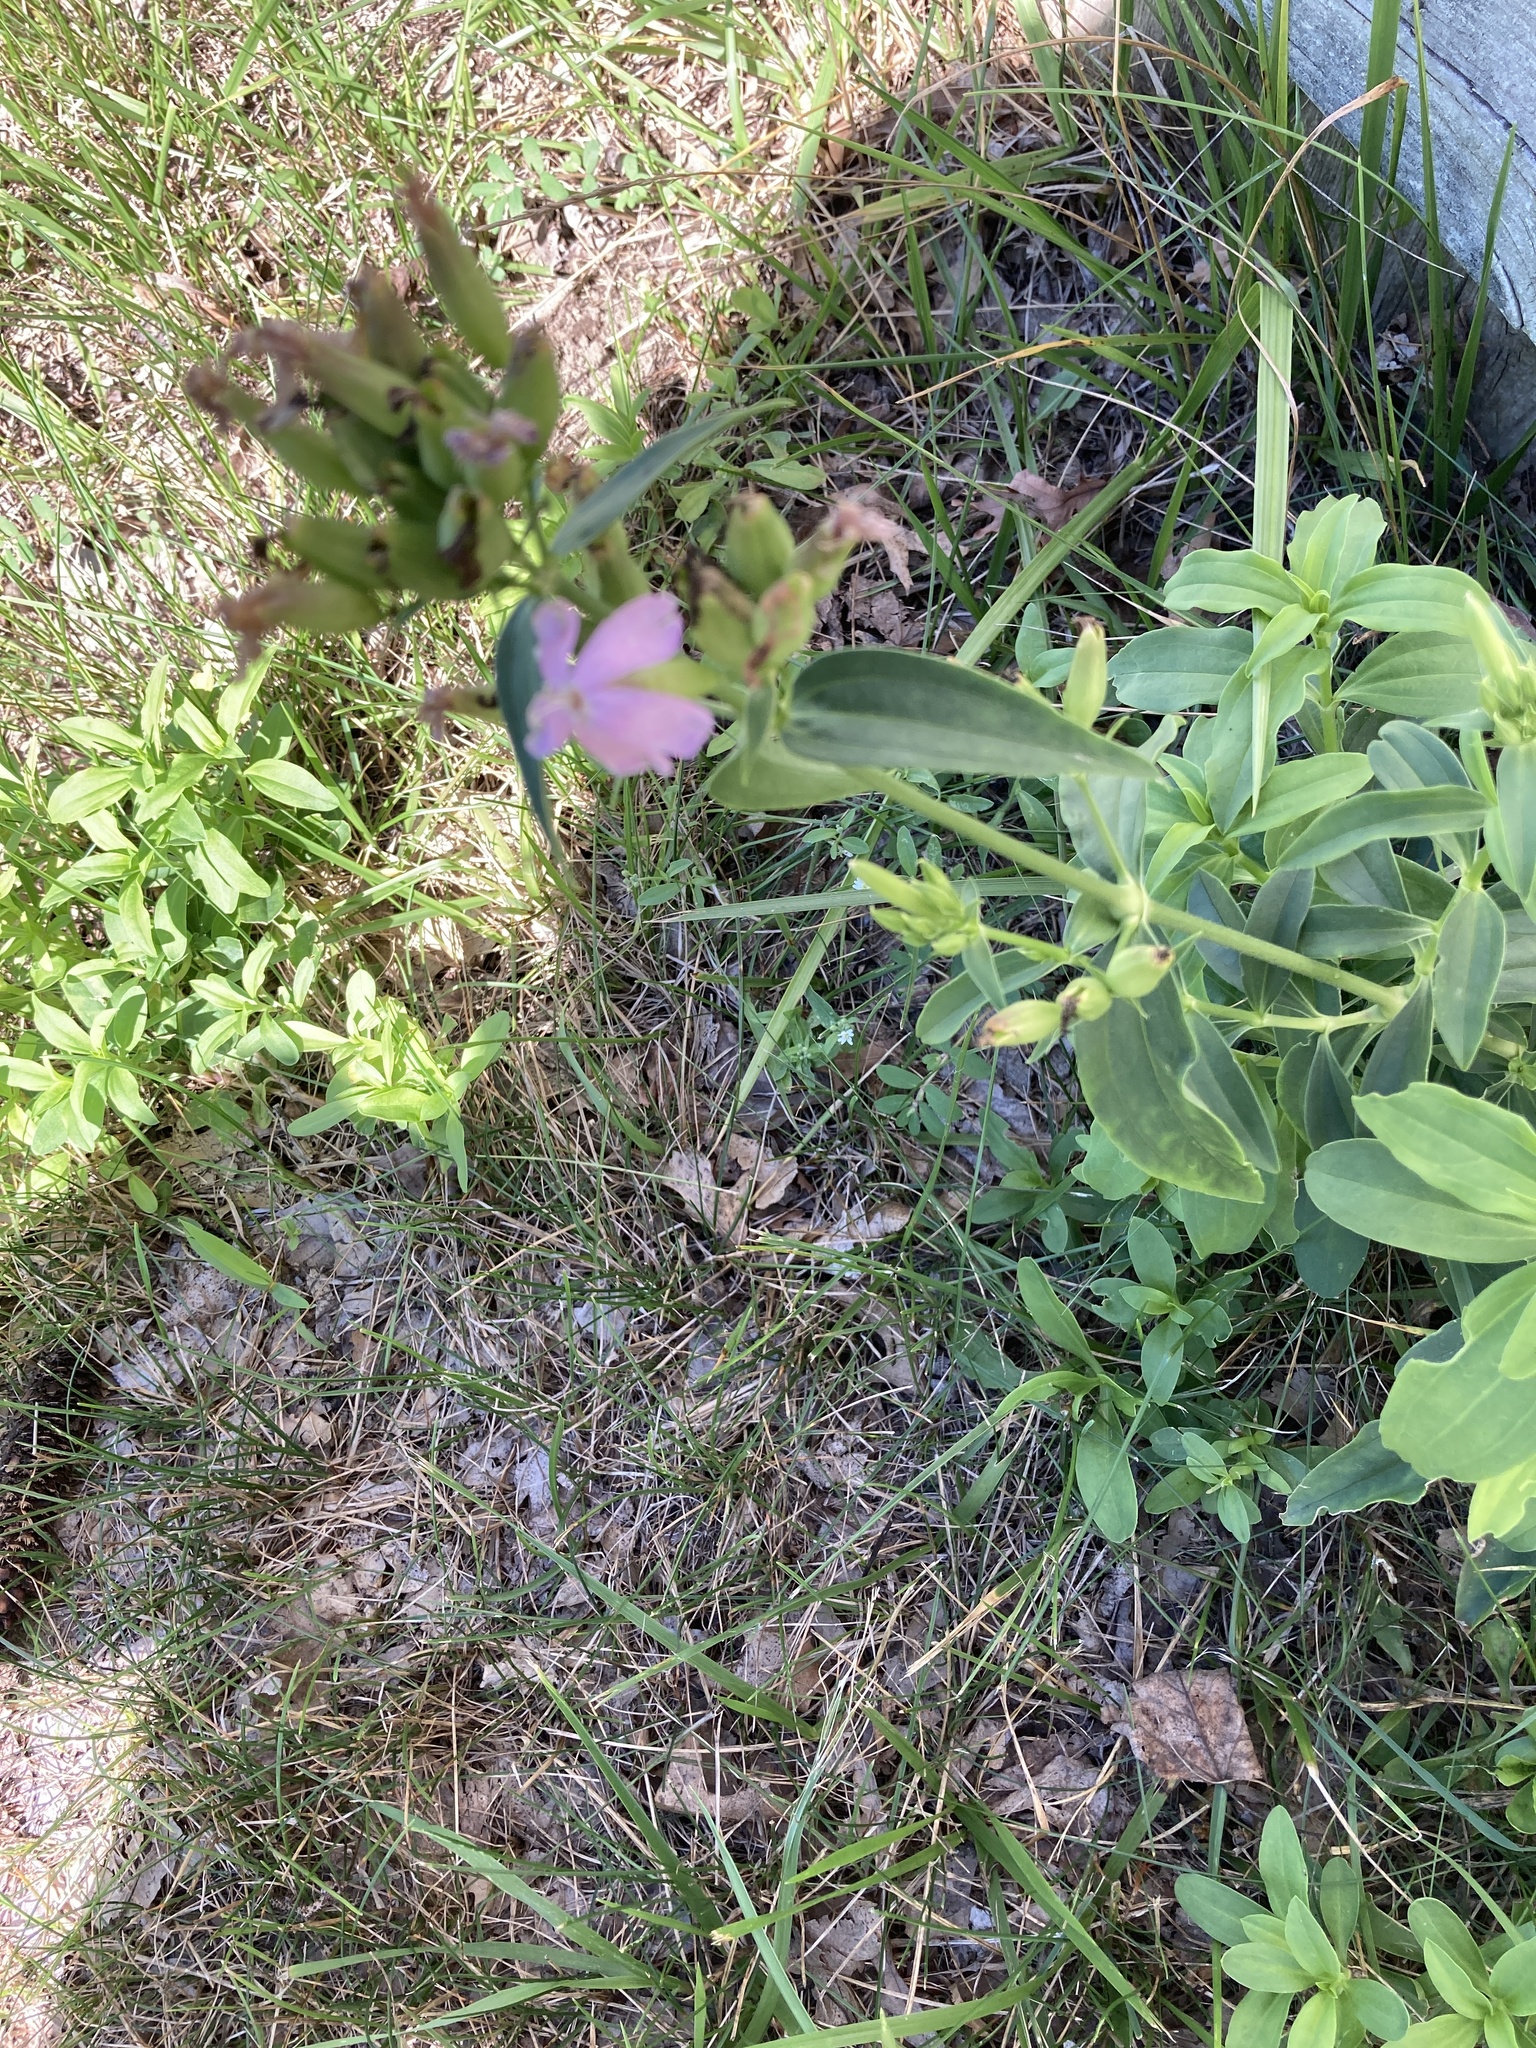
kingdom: Plantae
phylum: Tracheophyta
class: Magnoliopsida
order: Caryophyllales
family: Caryophyllaceae
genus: Saponaria
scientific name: Saponaria officinalis
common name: Soapwort
